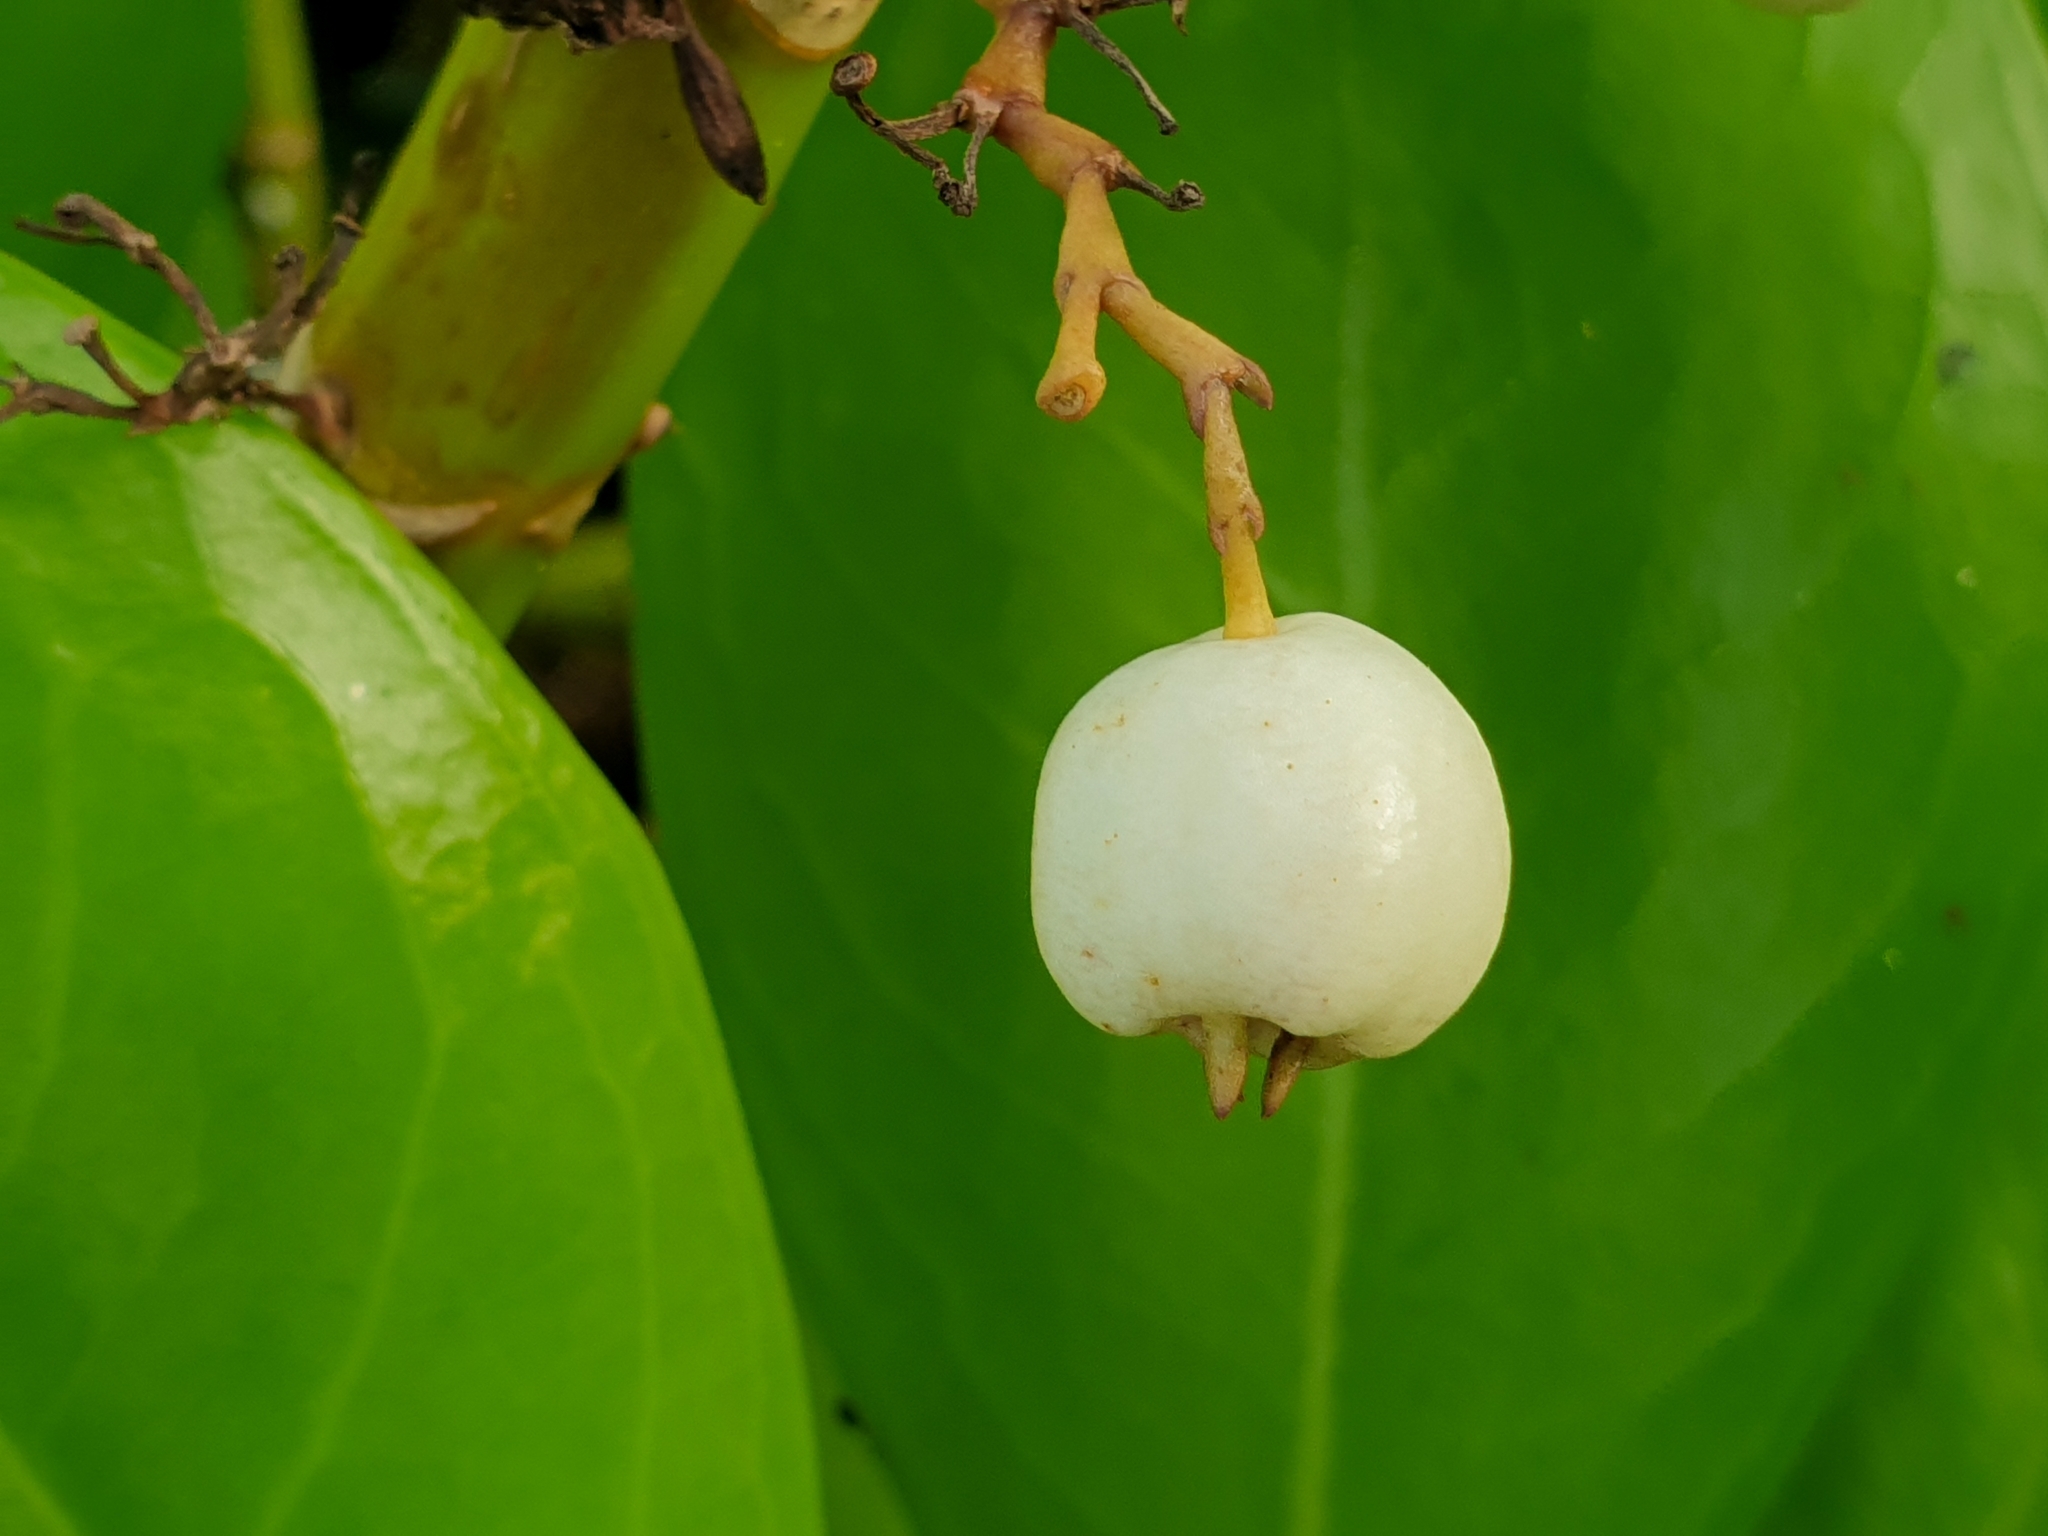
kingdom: Plantae
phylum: Tracheophyta
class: Magnoliopsida
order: Asterales
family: Goodeniaceae
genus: Scaevola
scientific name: Scaevola taccada
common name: Sea lettucetree
